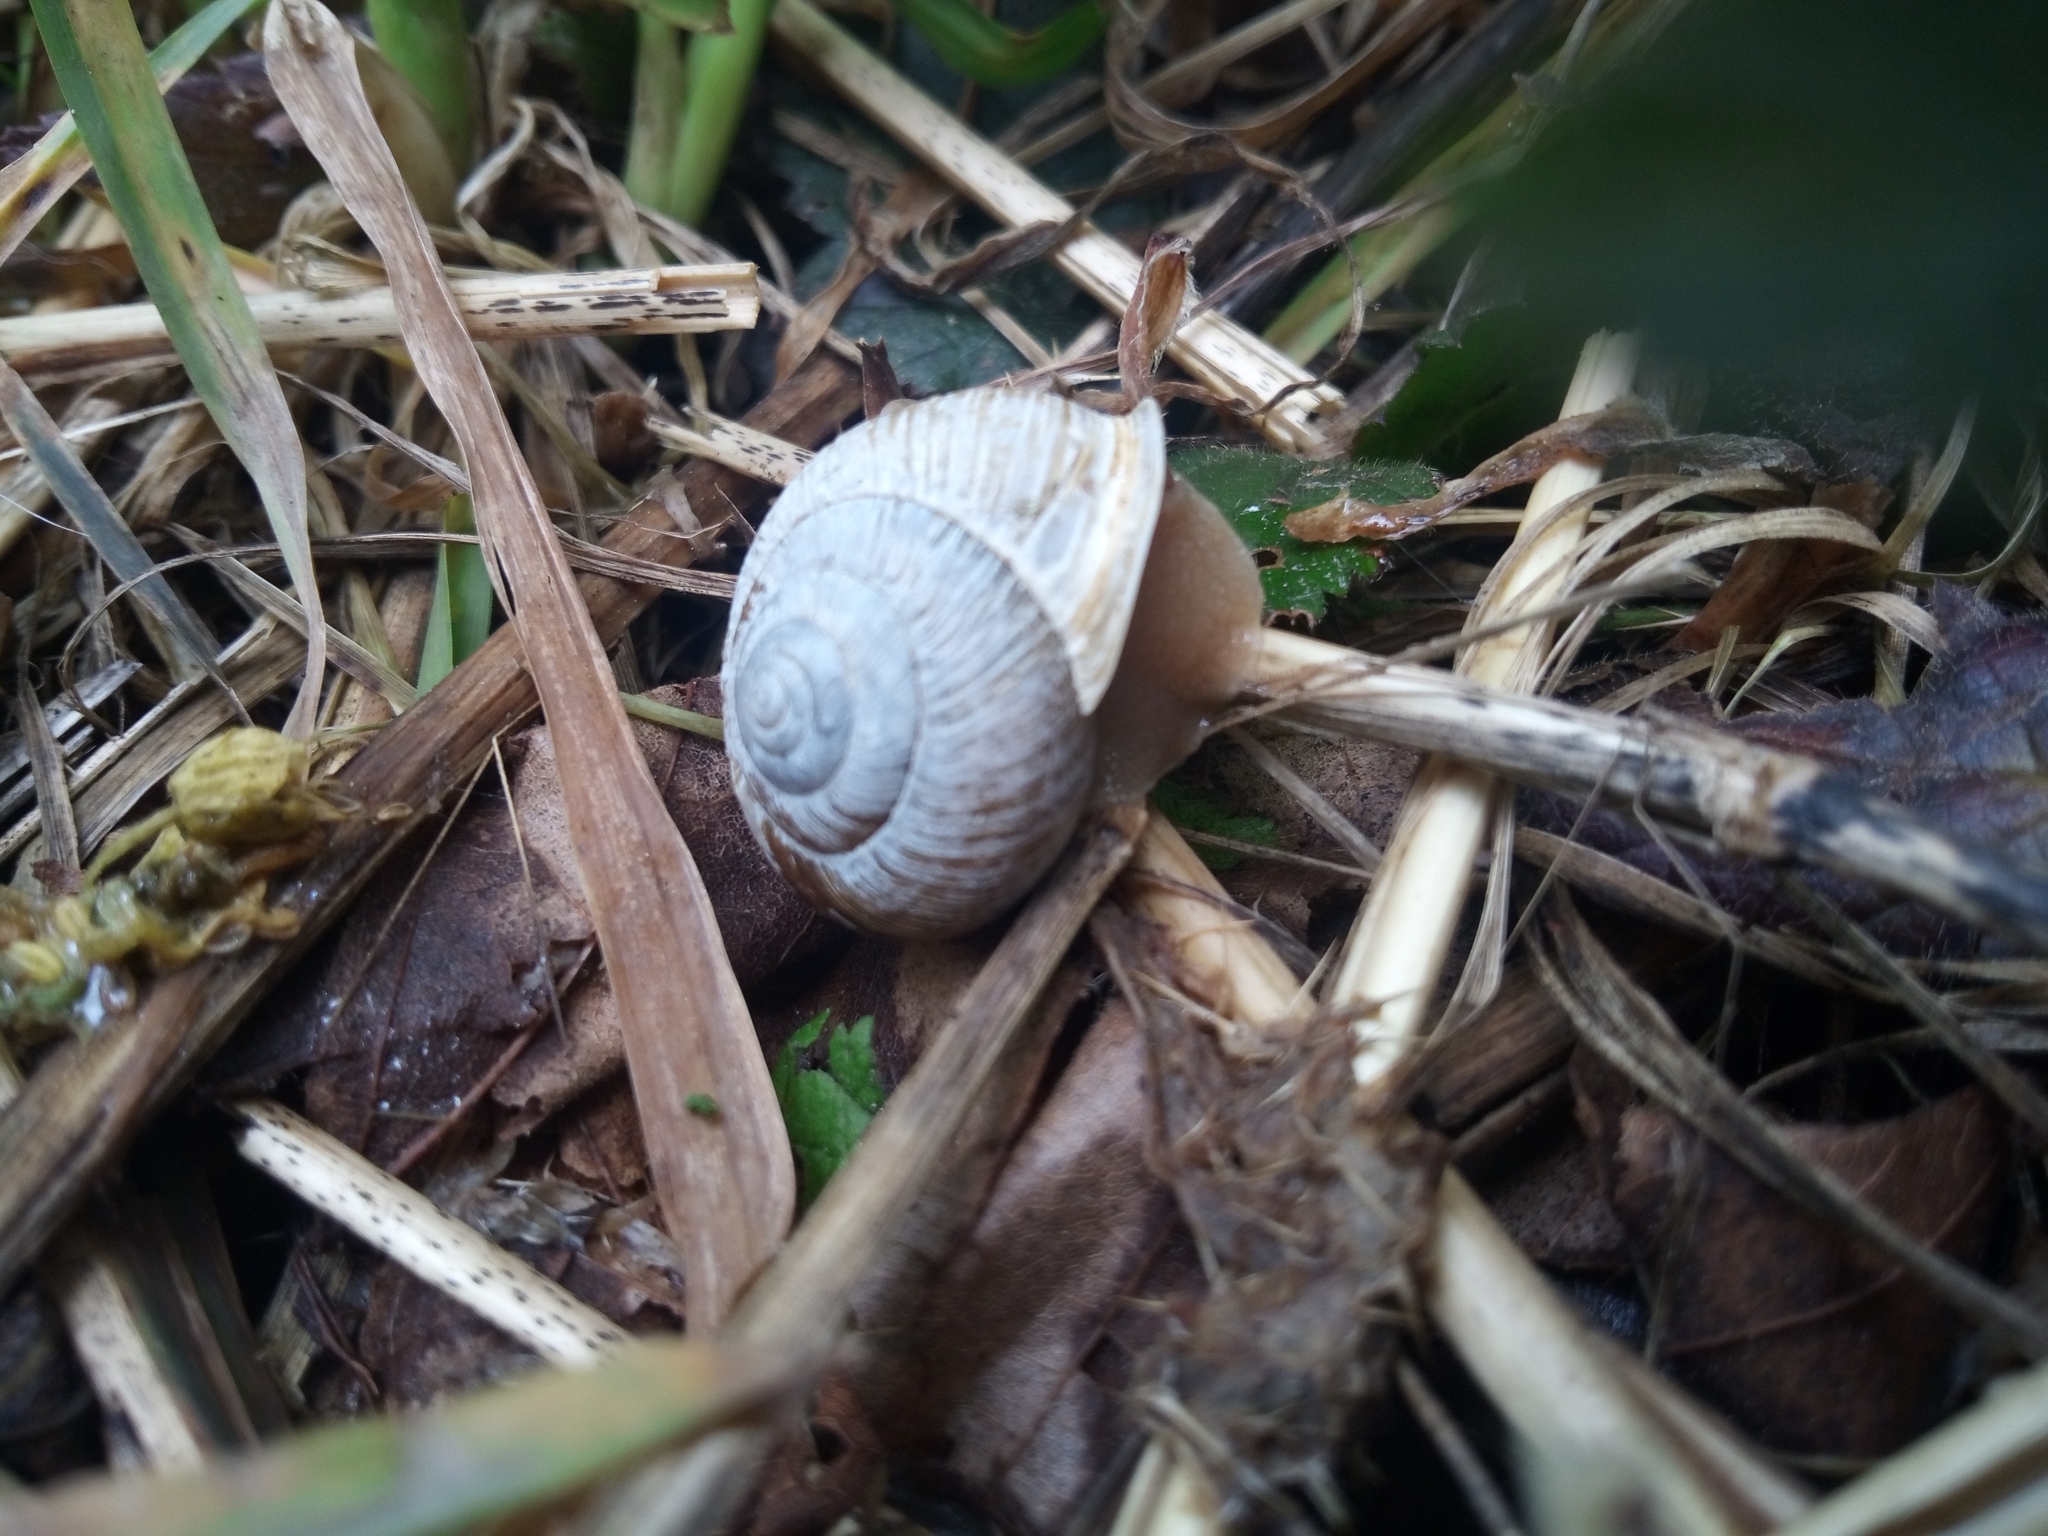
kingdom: Animalia
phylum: Mollusca
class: Gastropoda
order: Stylommatophora
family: Polygyridae
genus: Allogona
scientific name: Allogona townsendiana
